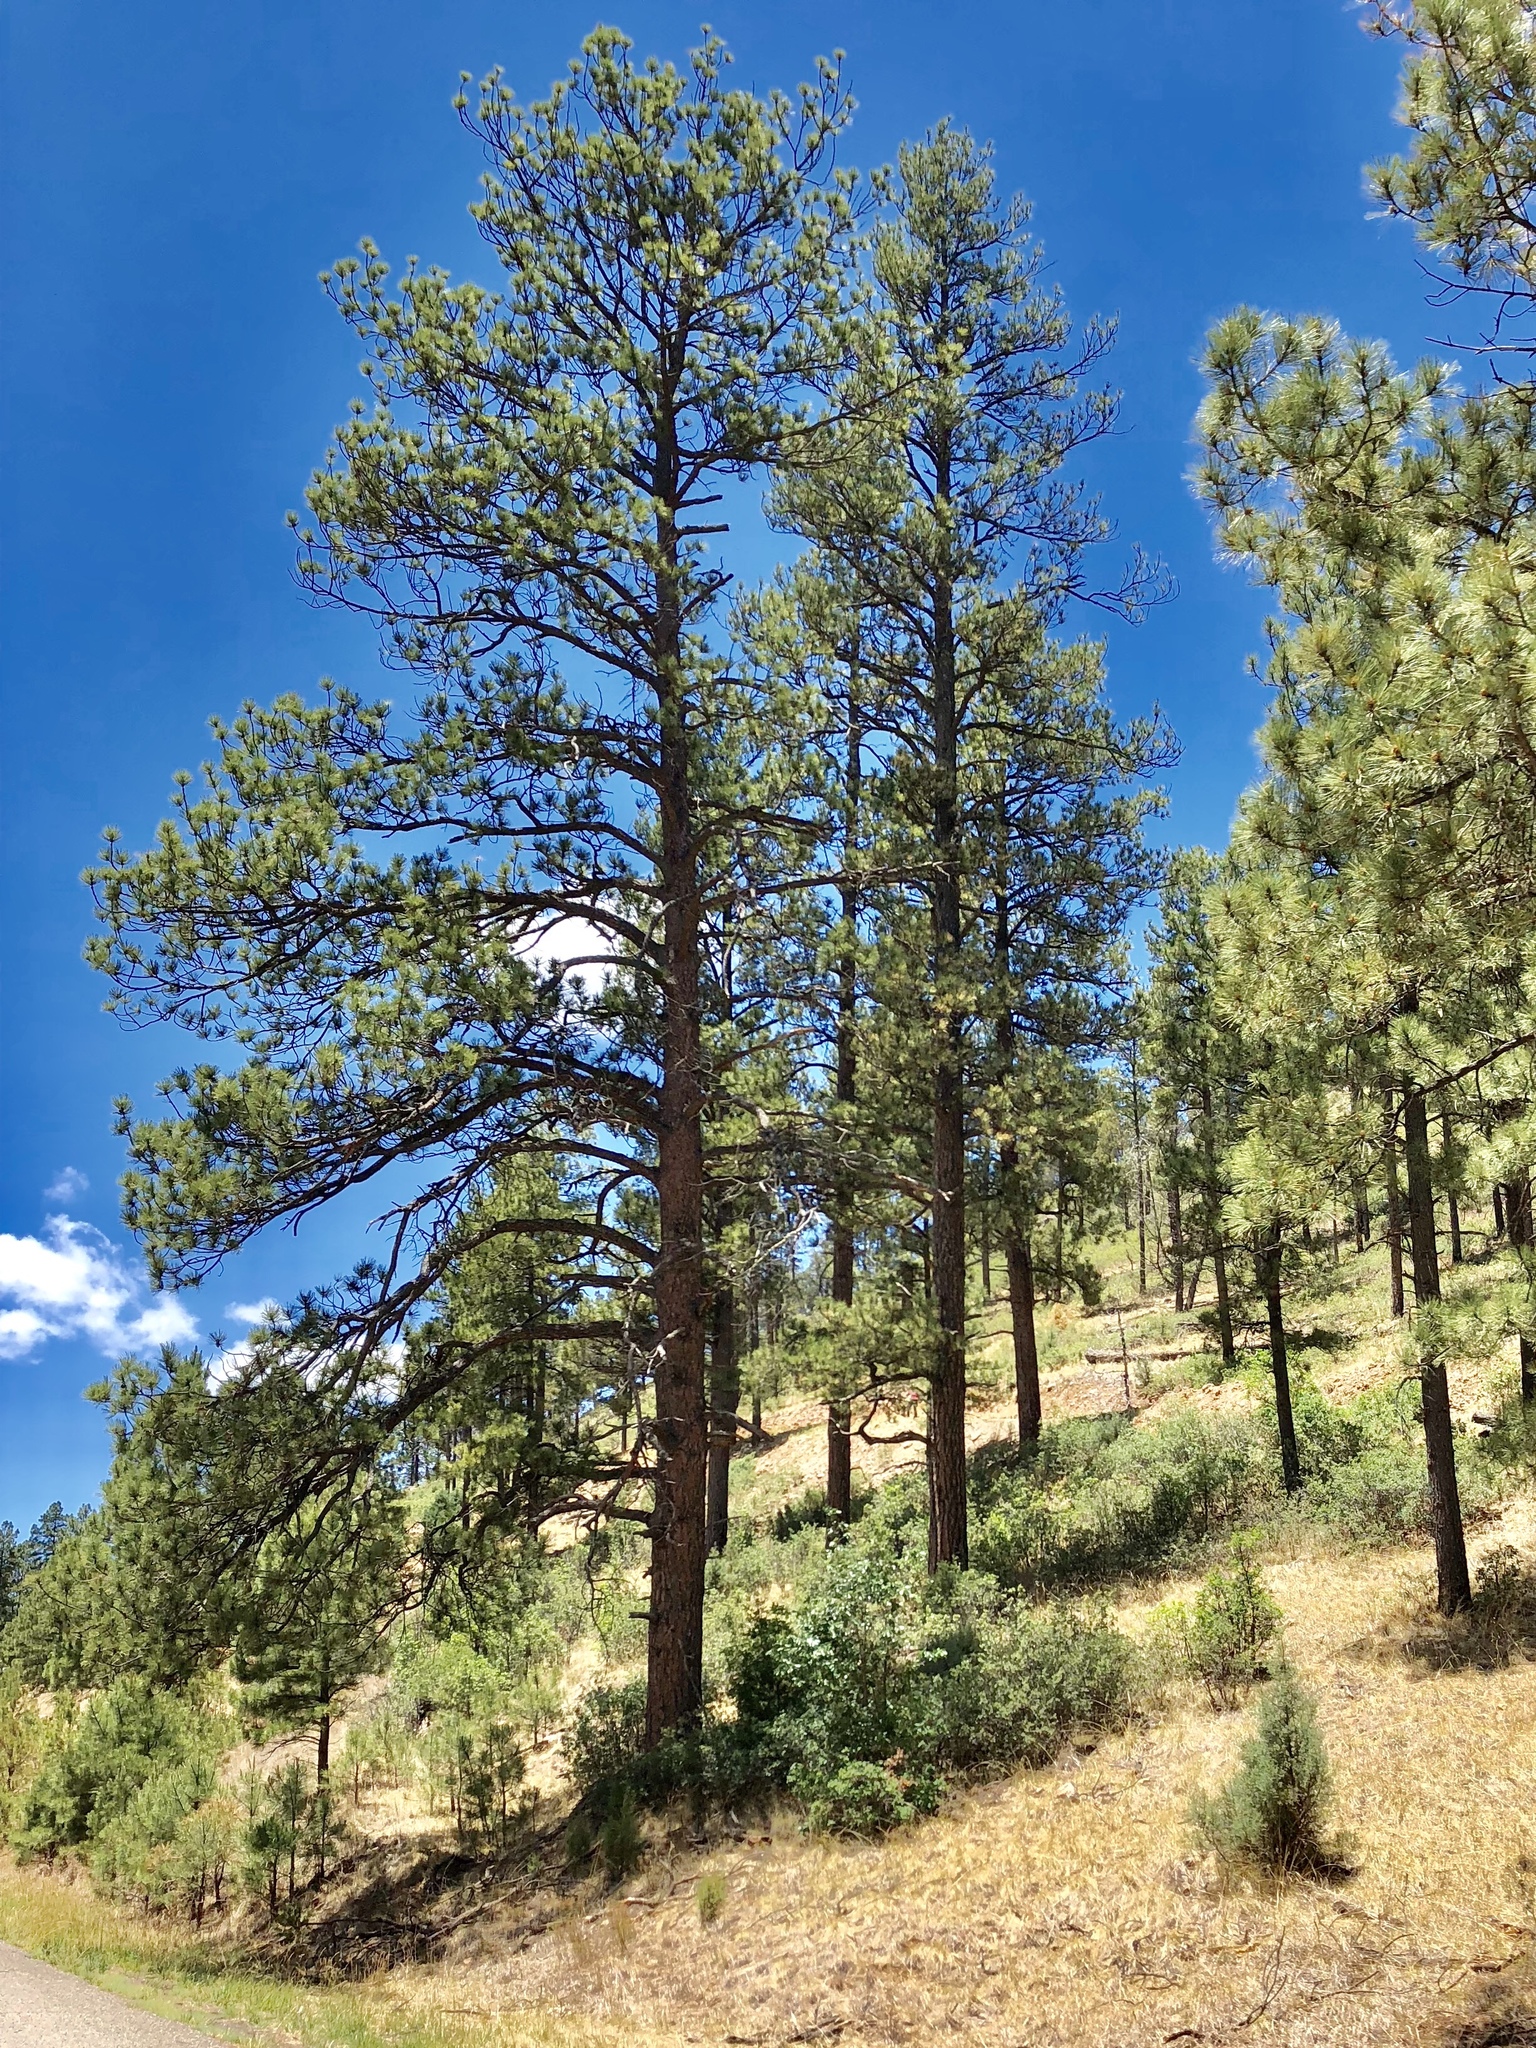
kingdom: Plantae
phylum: Tracheophyta
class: Pinopsida
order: Pinales
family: Pinaceae
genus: Pinus
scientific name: Pinus ponderosa
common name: Western yellow-pine
